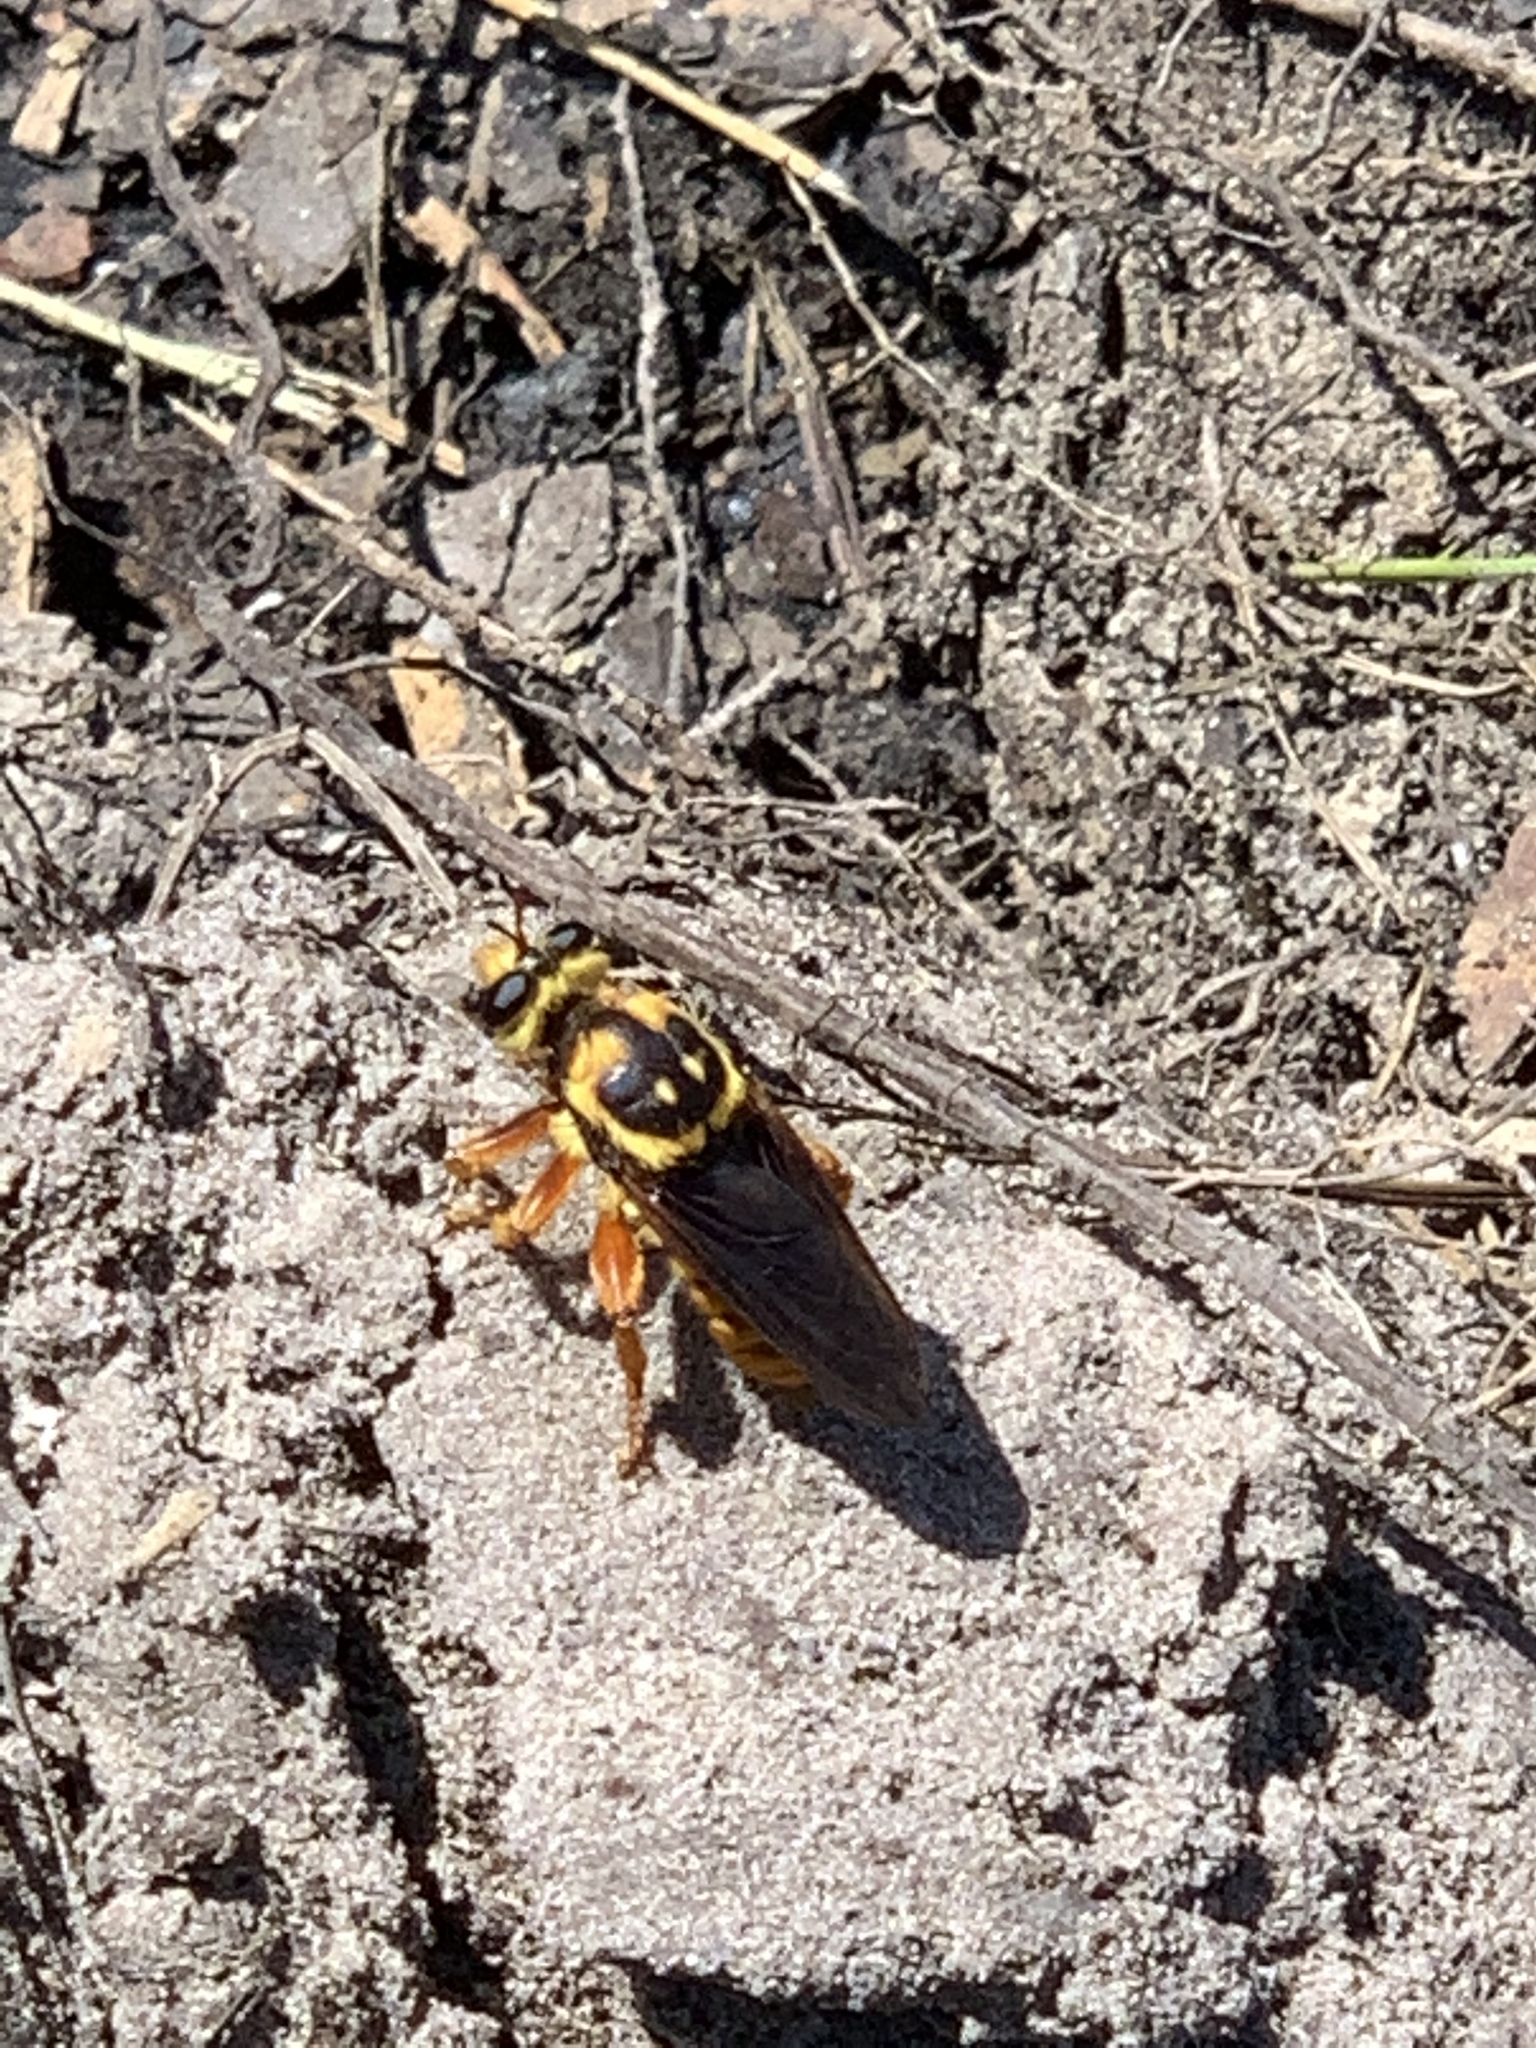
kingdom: Animalia
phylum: Arthropoda
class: Insecta
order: Diptera
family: Asilidae
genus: Laphria
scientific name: Laphria saffrana
